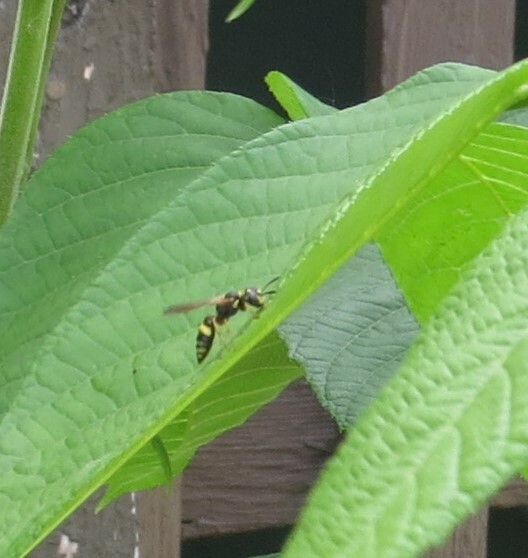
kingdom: Animalia
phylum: Arthropoda
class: Insecta
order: Hymenoptera
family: Crabronidae
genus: Philanthus
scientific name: Philanthus gibbosus
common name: Humped beewolf
